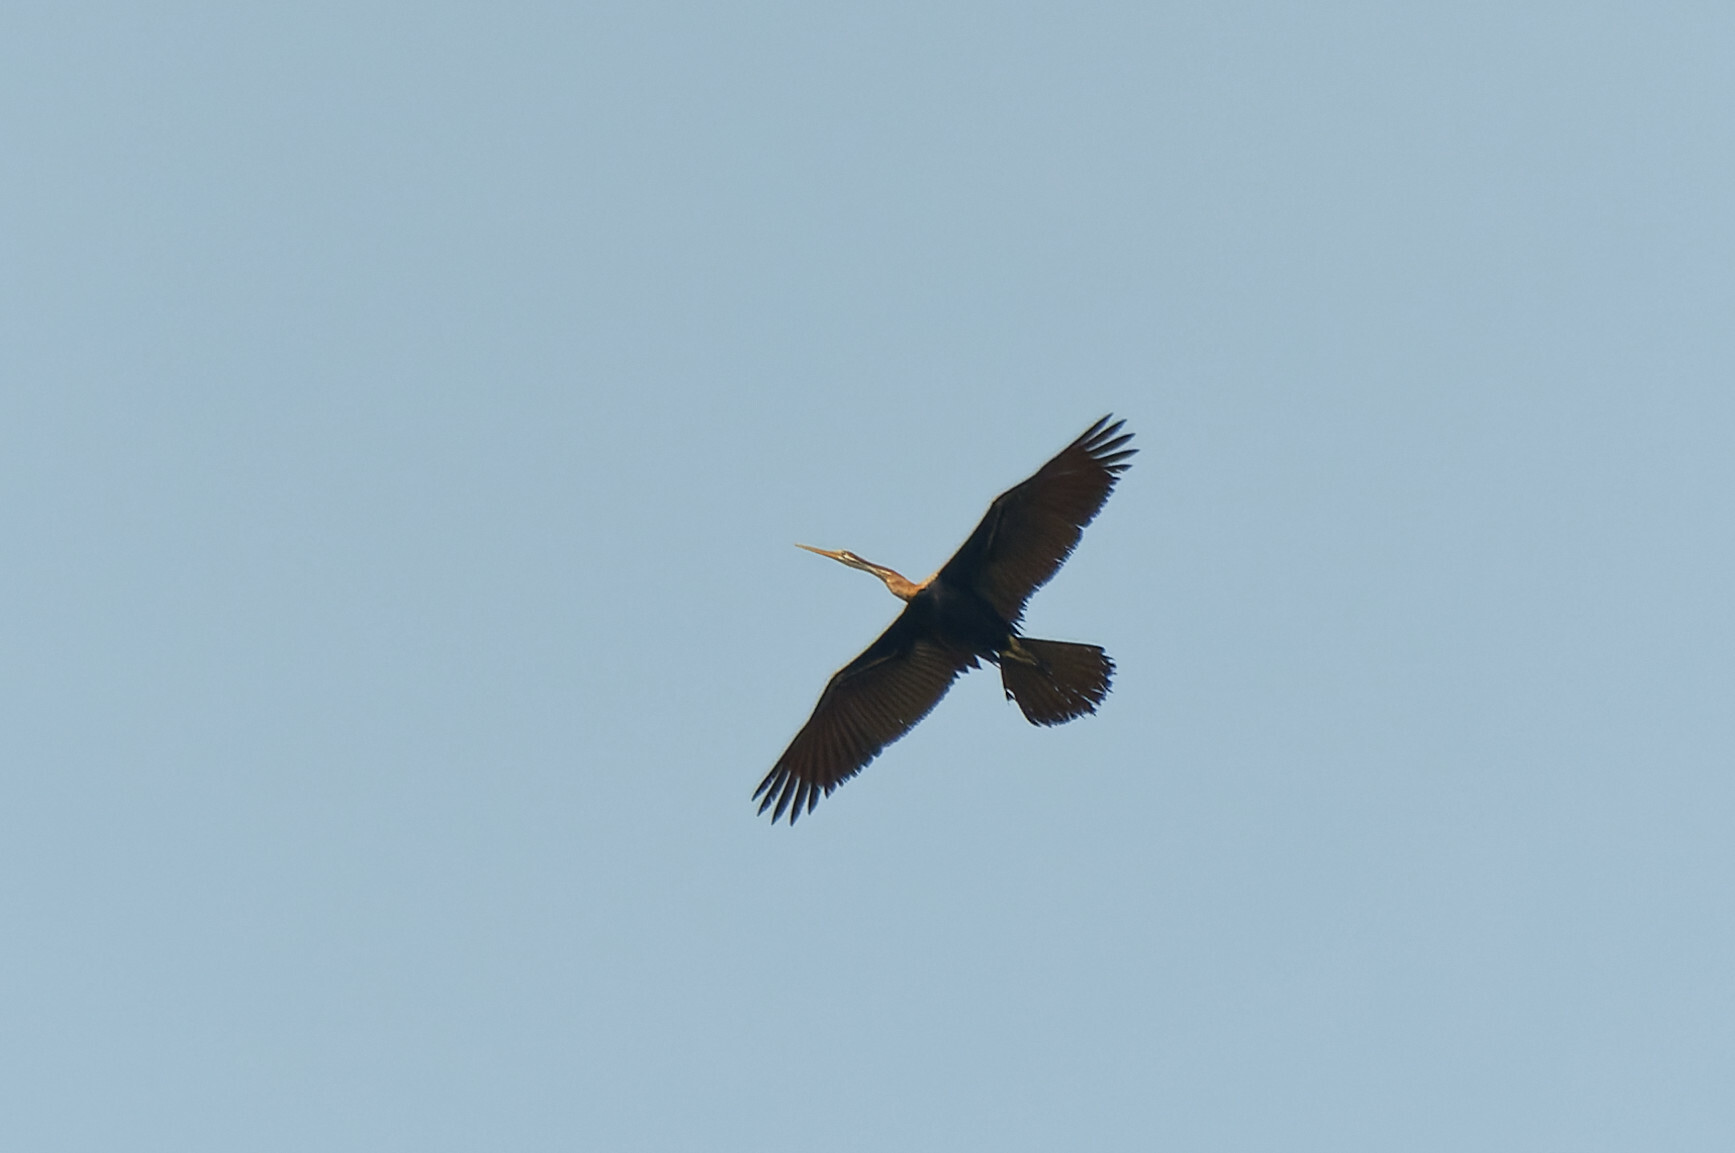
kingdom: Animalia
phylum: Chordata
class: Aves
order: Suliformes
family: Anhingidae
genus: Anhinga
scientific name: Anhinga melanogaster
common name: Oriental darter
